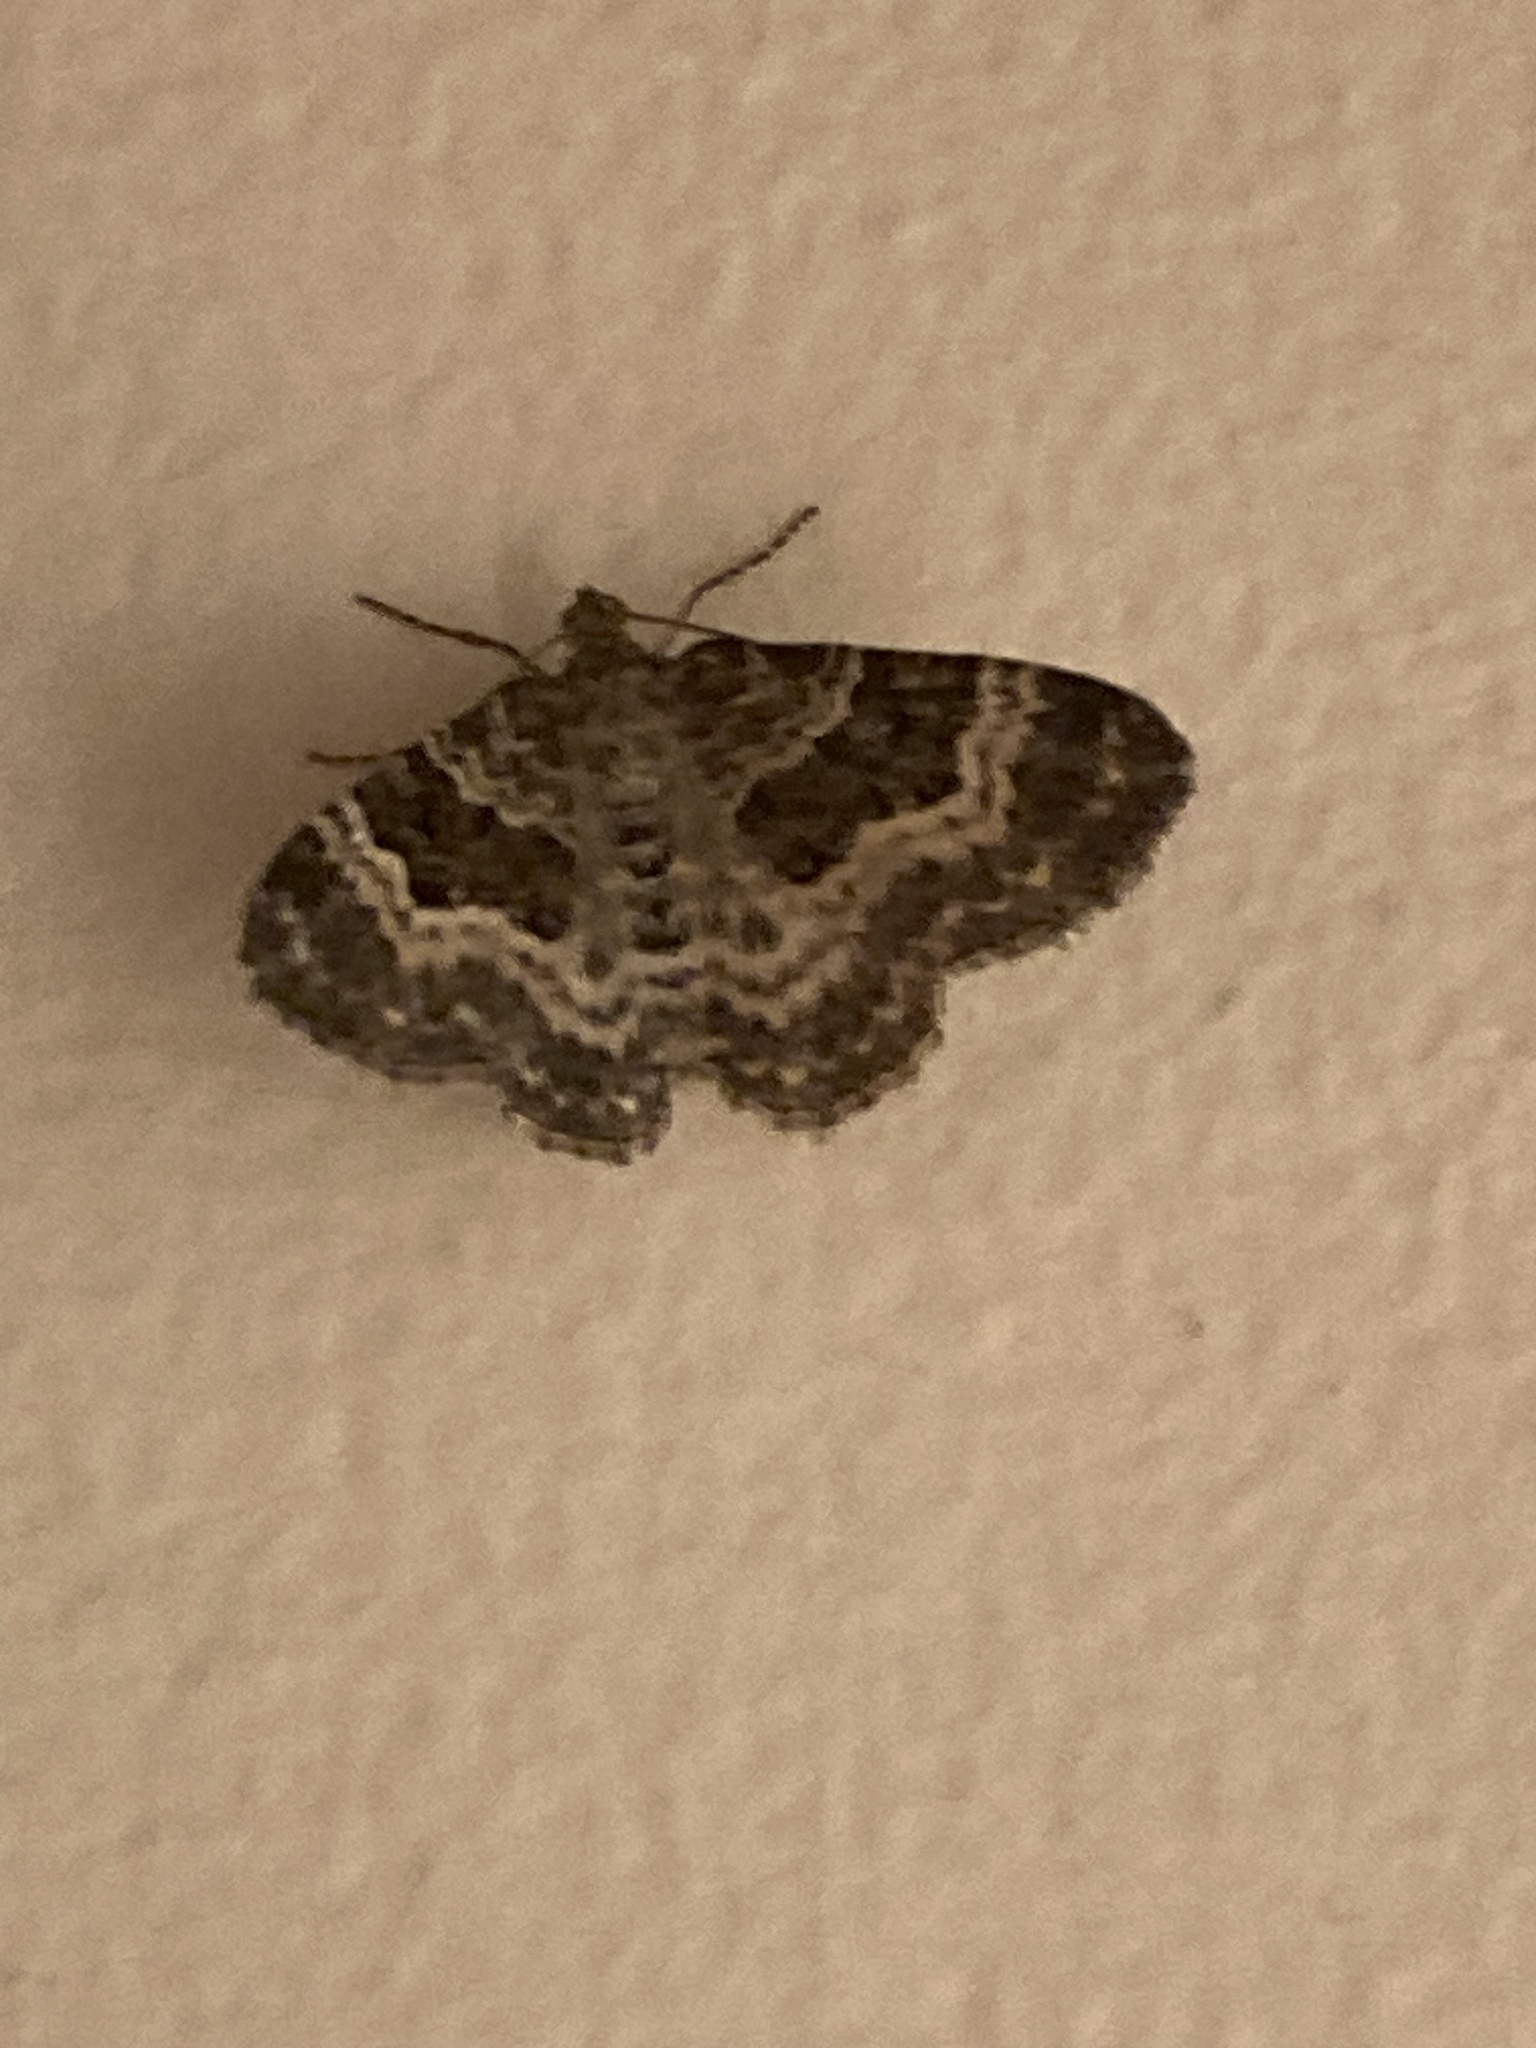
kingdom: Animalia
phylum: Arthropoda
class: Insecta
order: Lepidoptera
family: Geometridae
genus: Epirrhoe
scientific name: Epirrhoe alternata
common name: Common carpet
